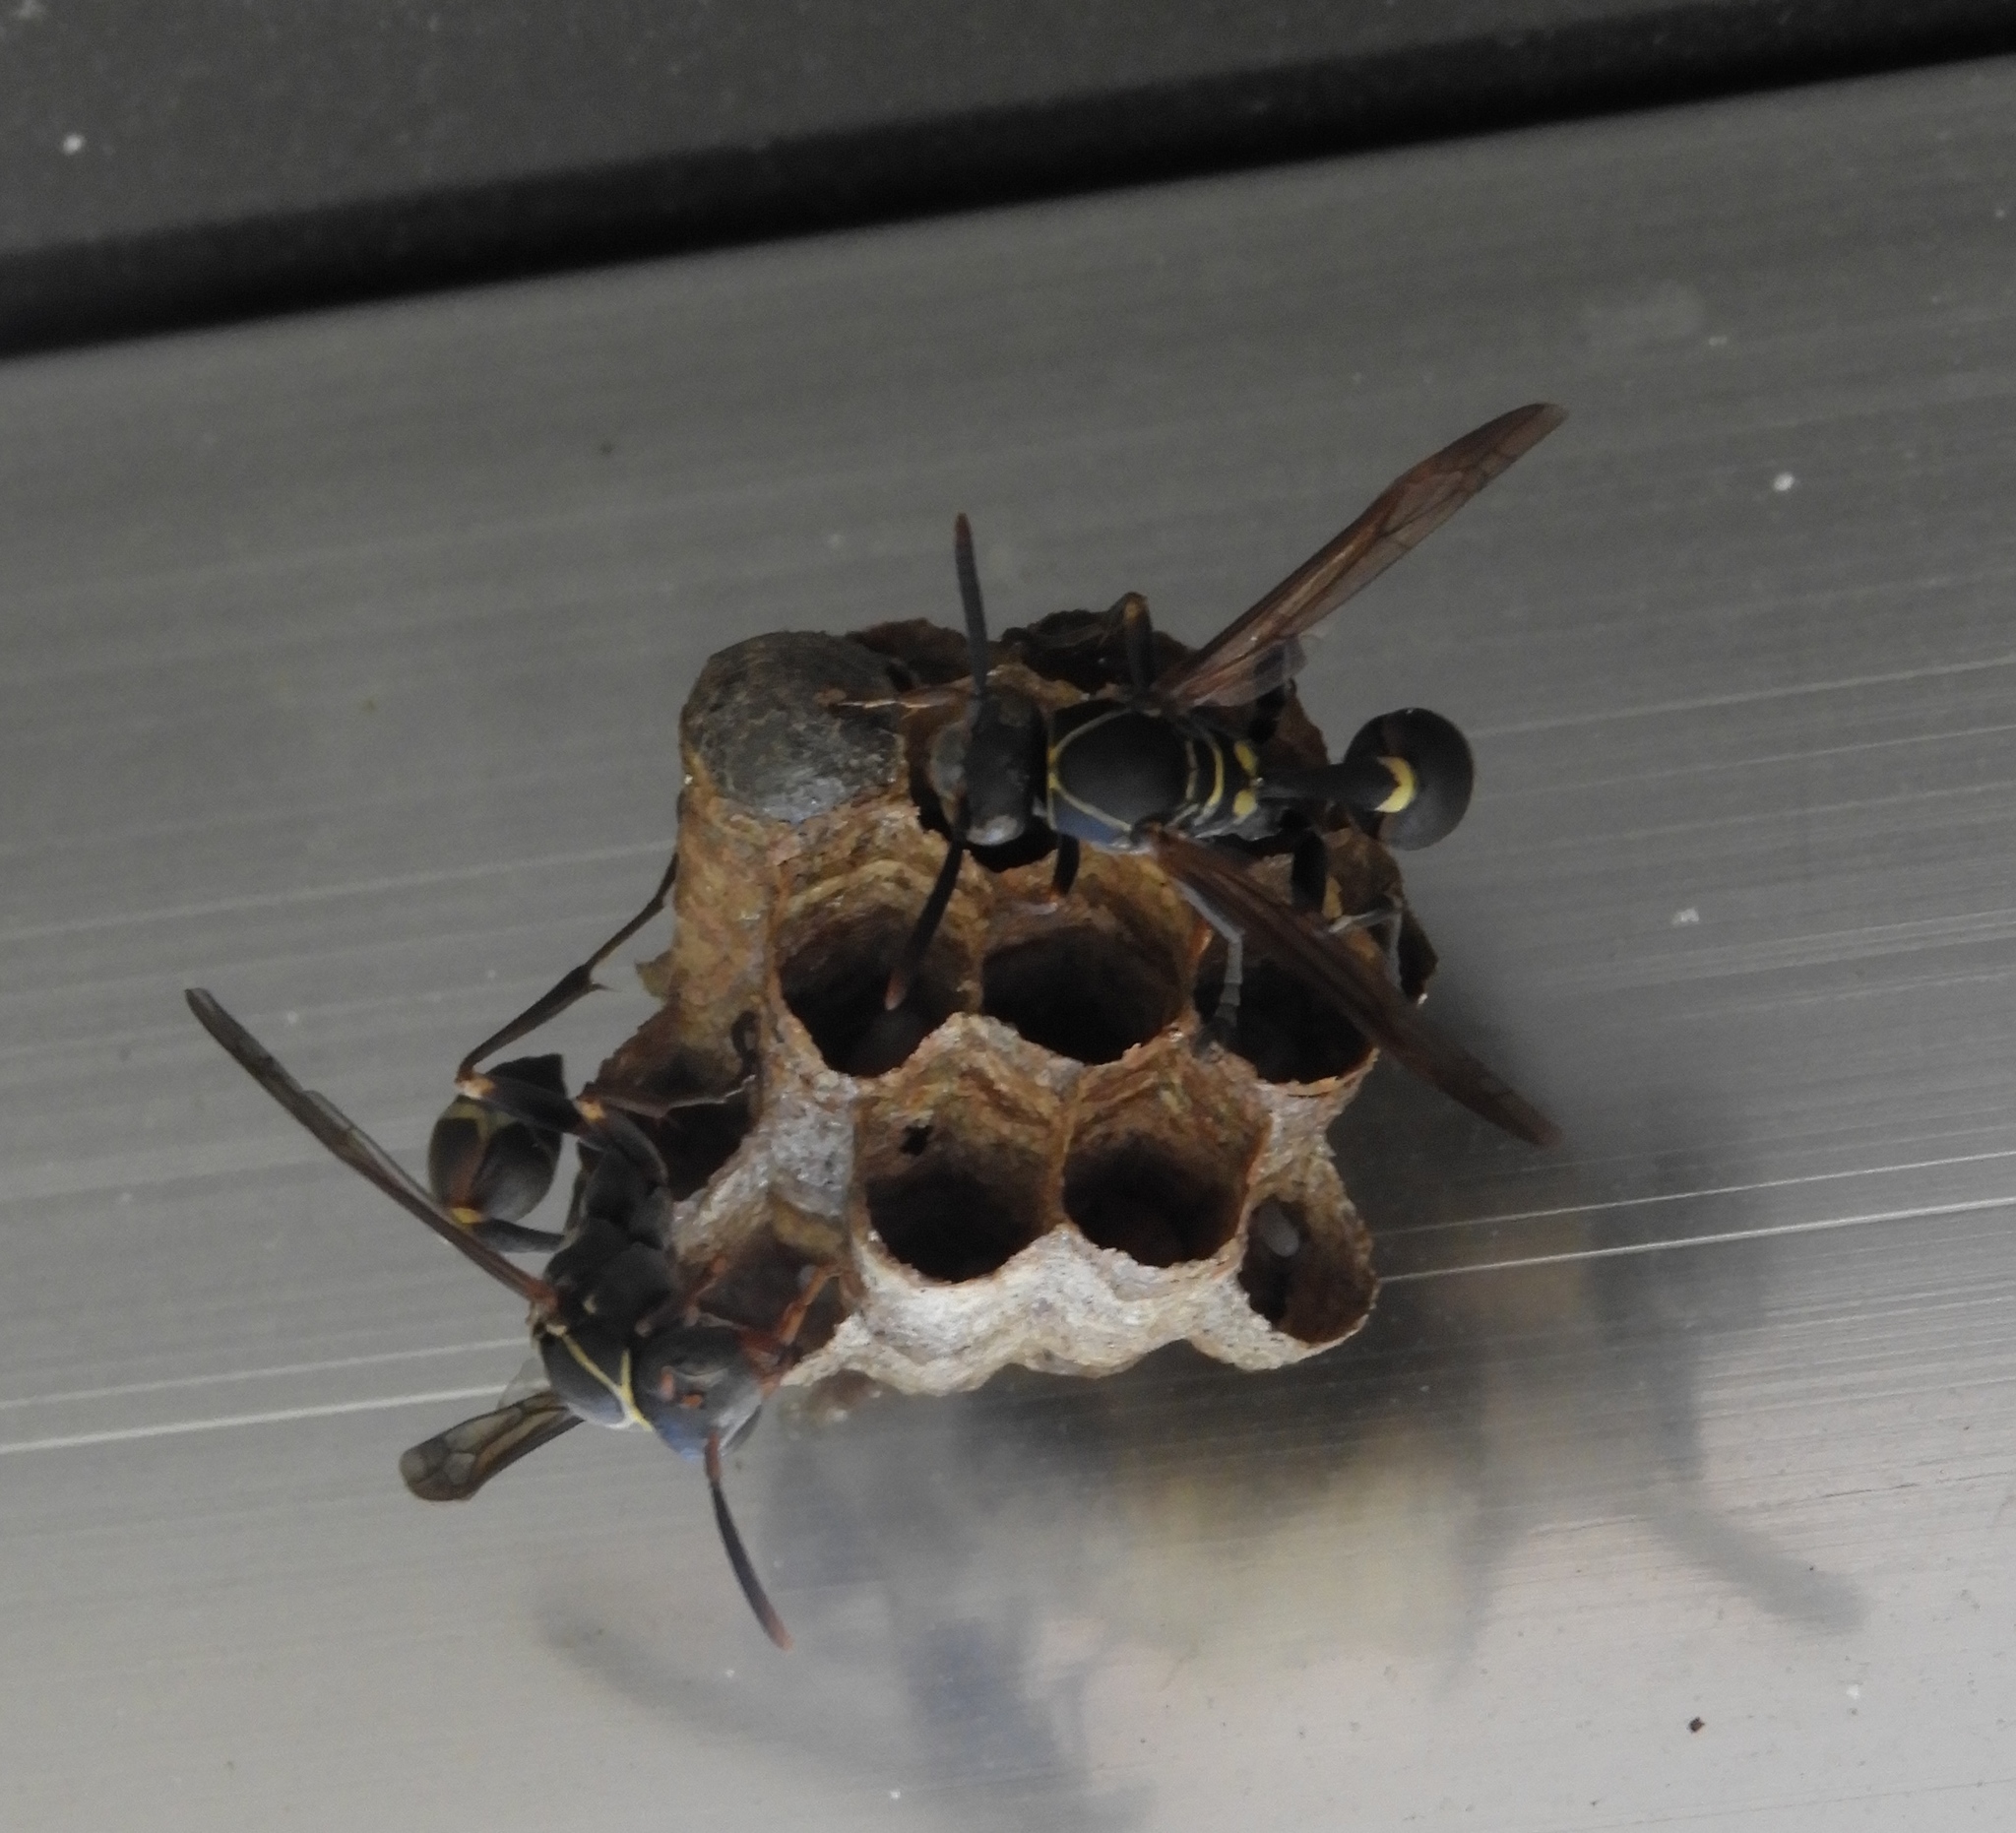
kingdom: Animalia
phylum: Arthropoda
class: Insecta
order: Hymenoptera
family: Vespidae
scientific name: Vespidae
